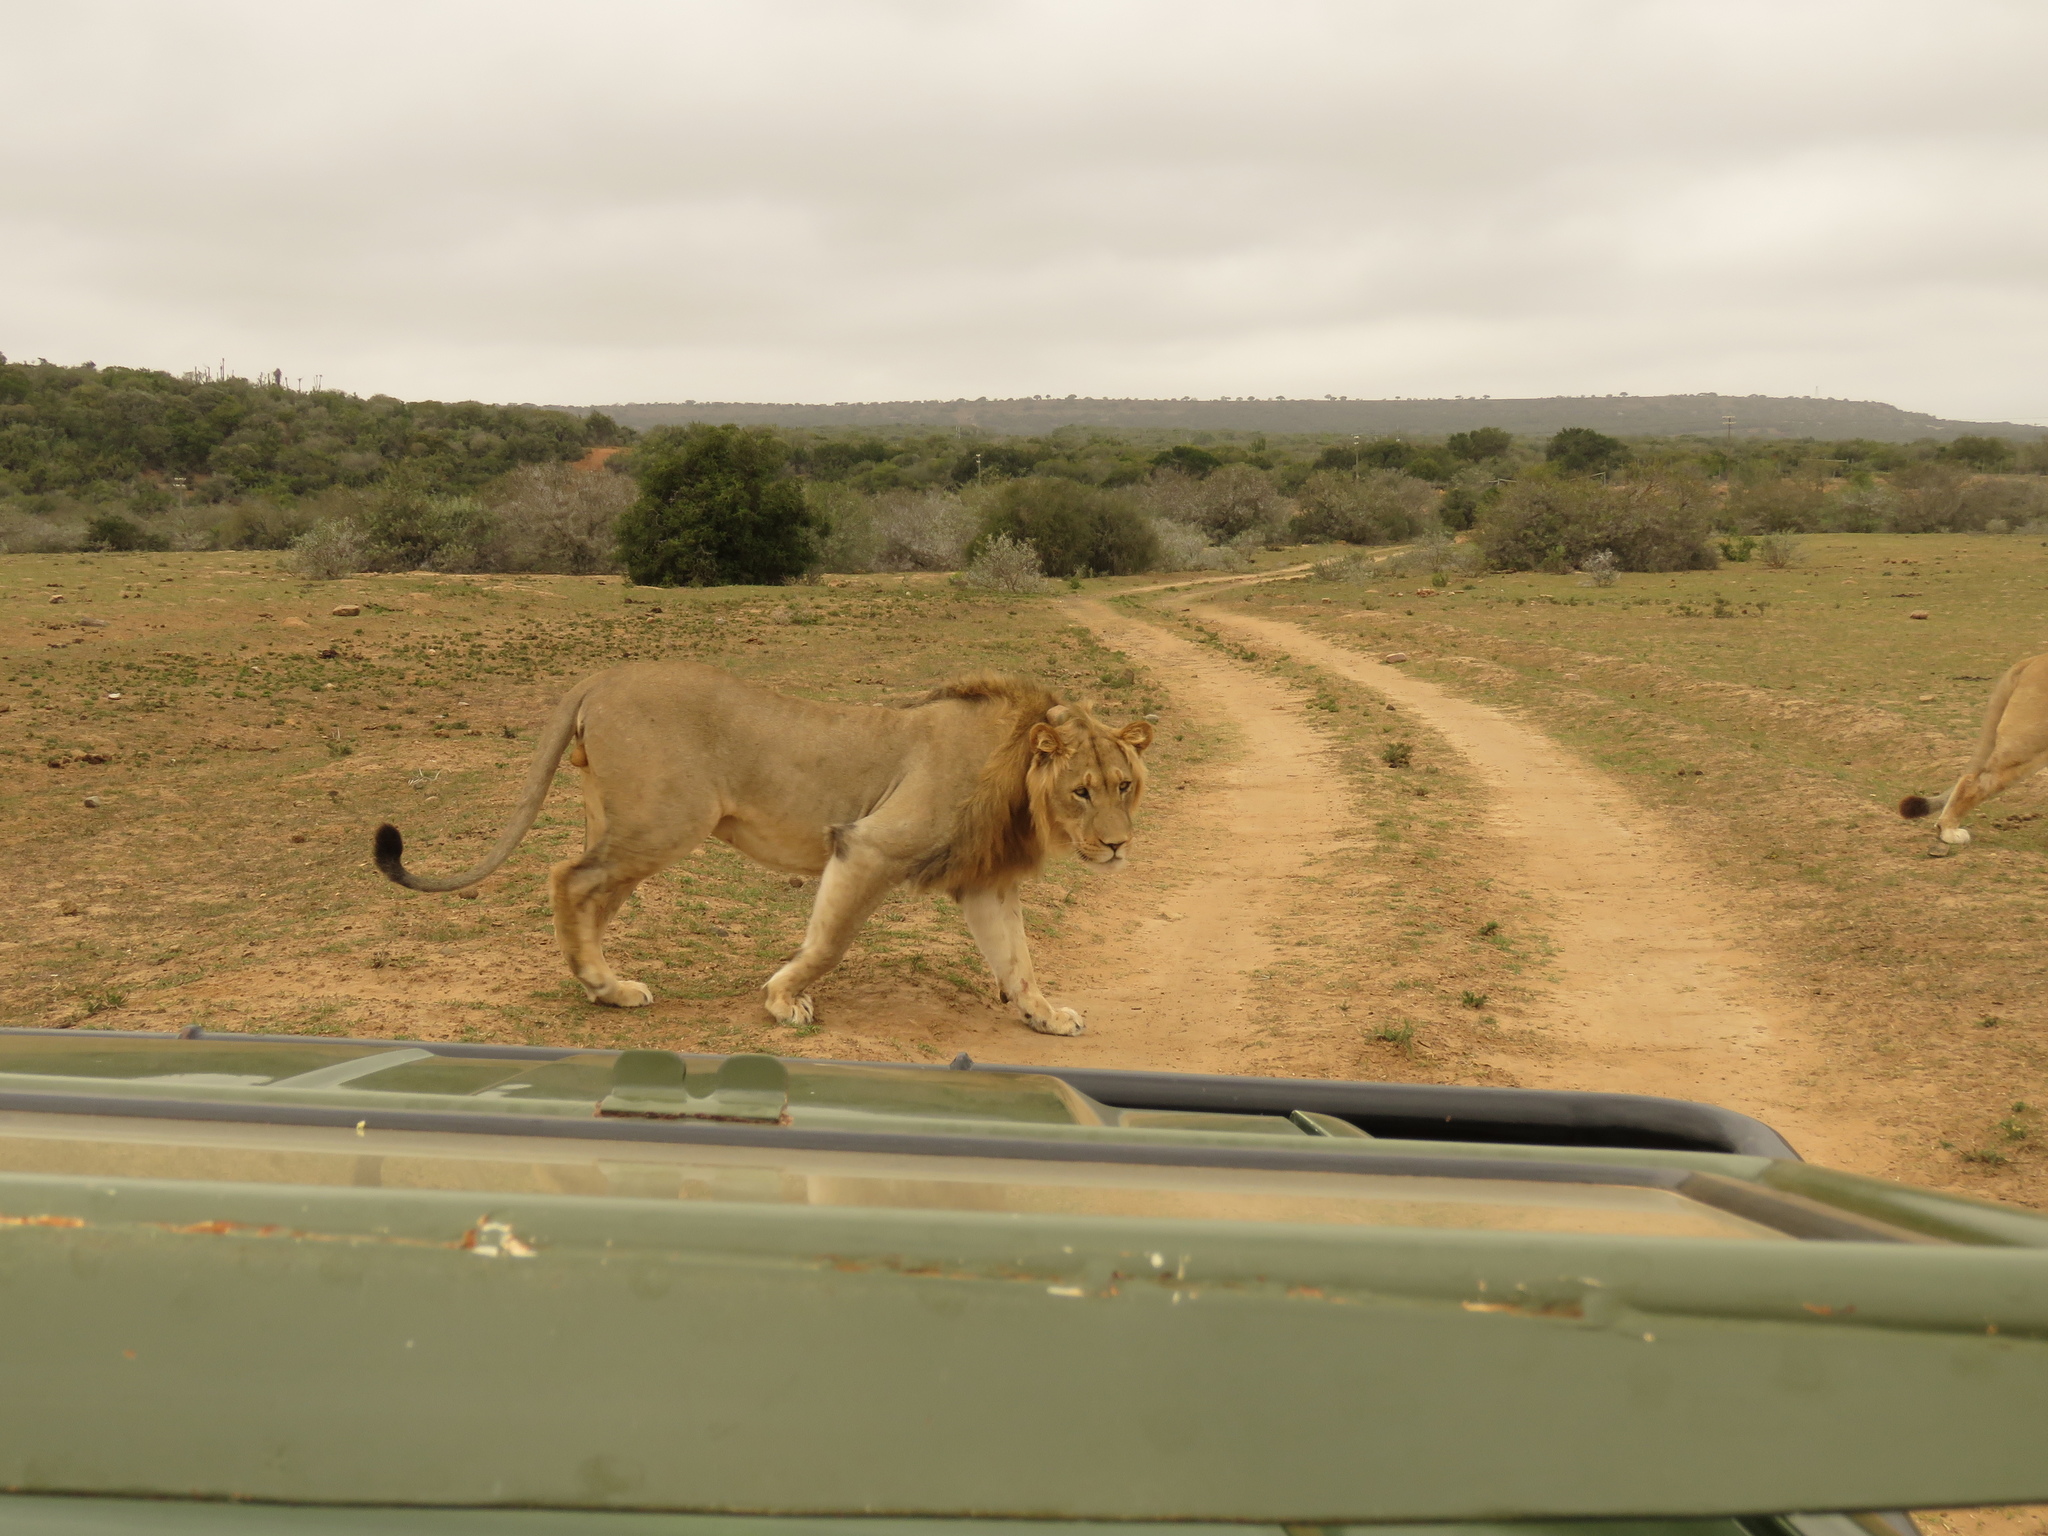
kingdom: Animalia
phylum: Chordata
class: Mammalia
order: Carnivora
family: Felidae
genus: Panthera
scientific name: Panthera leo
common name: Lion
